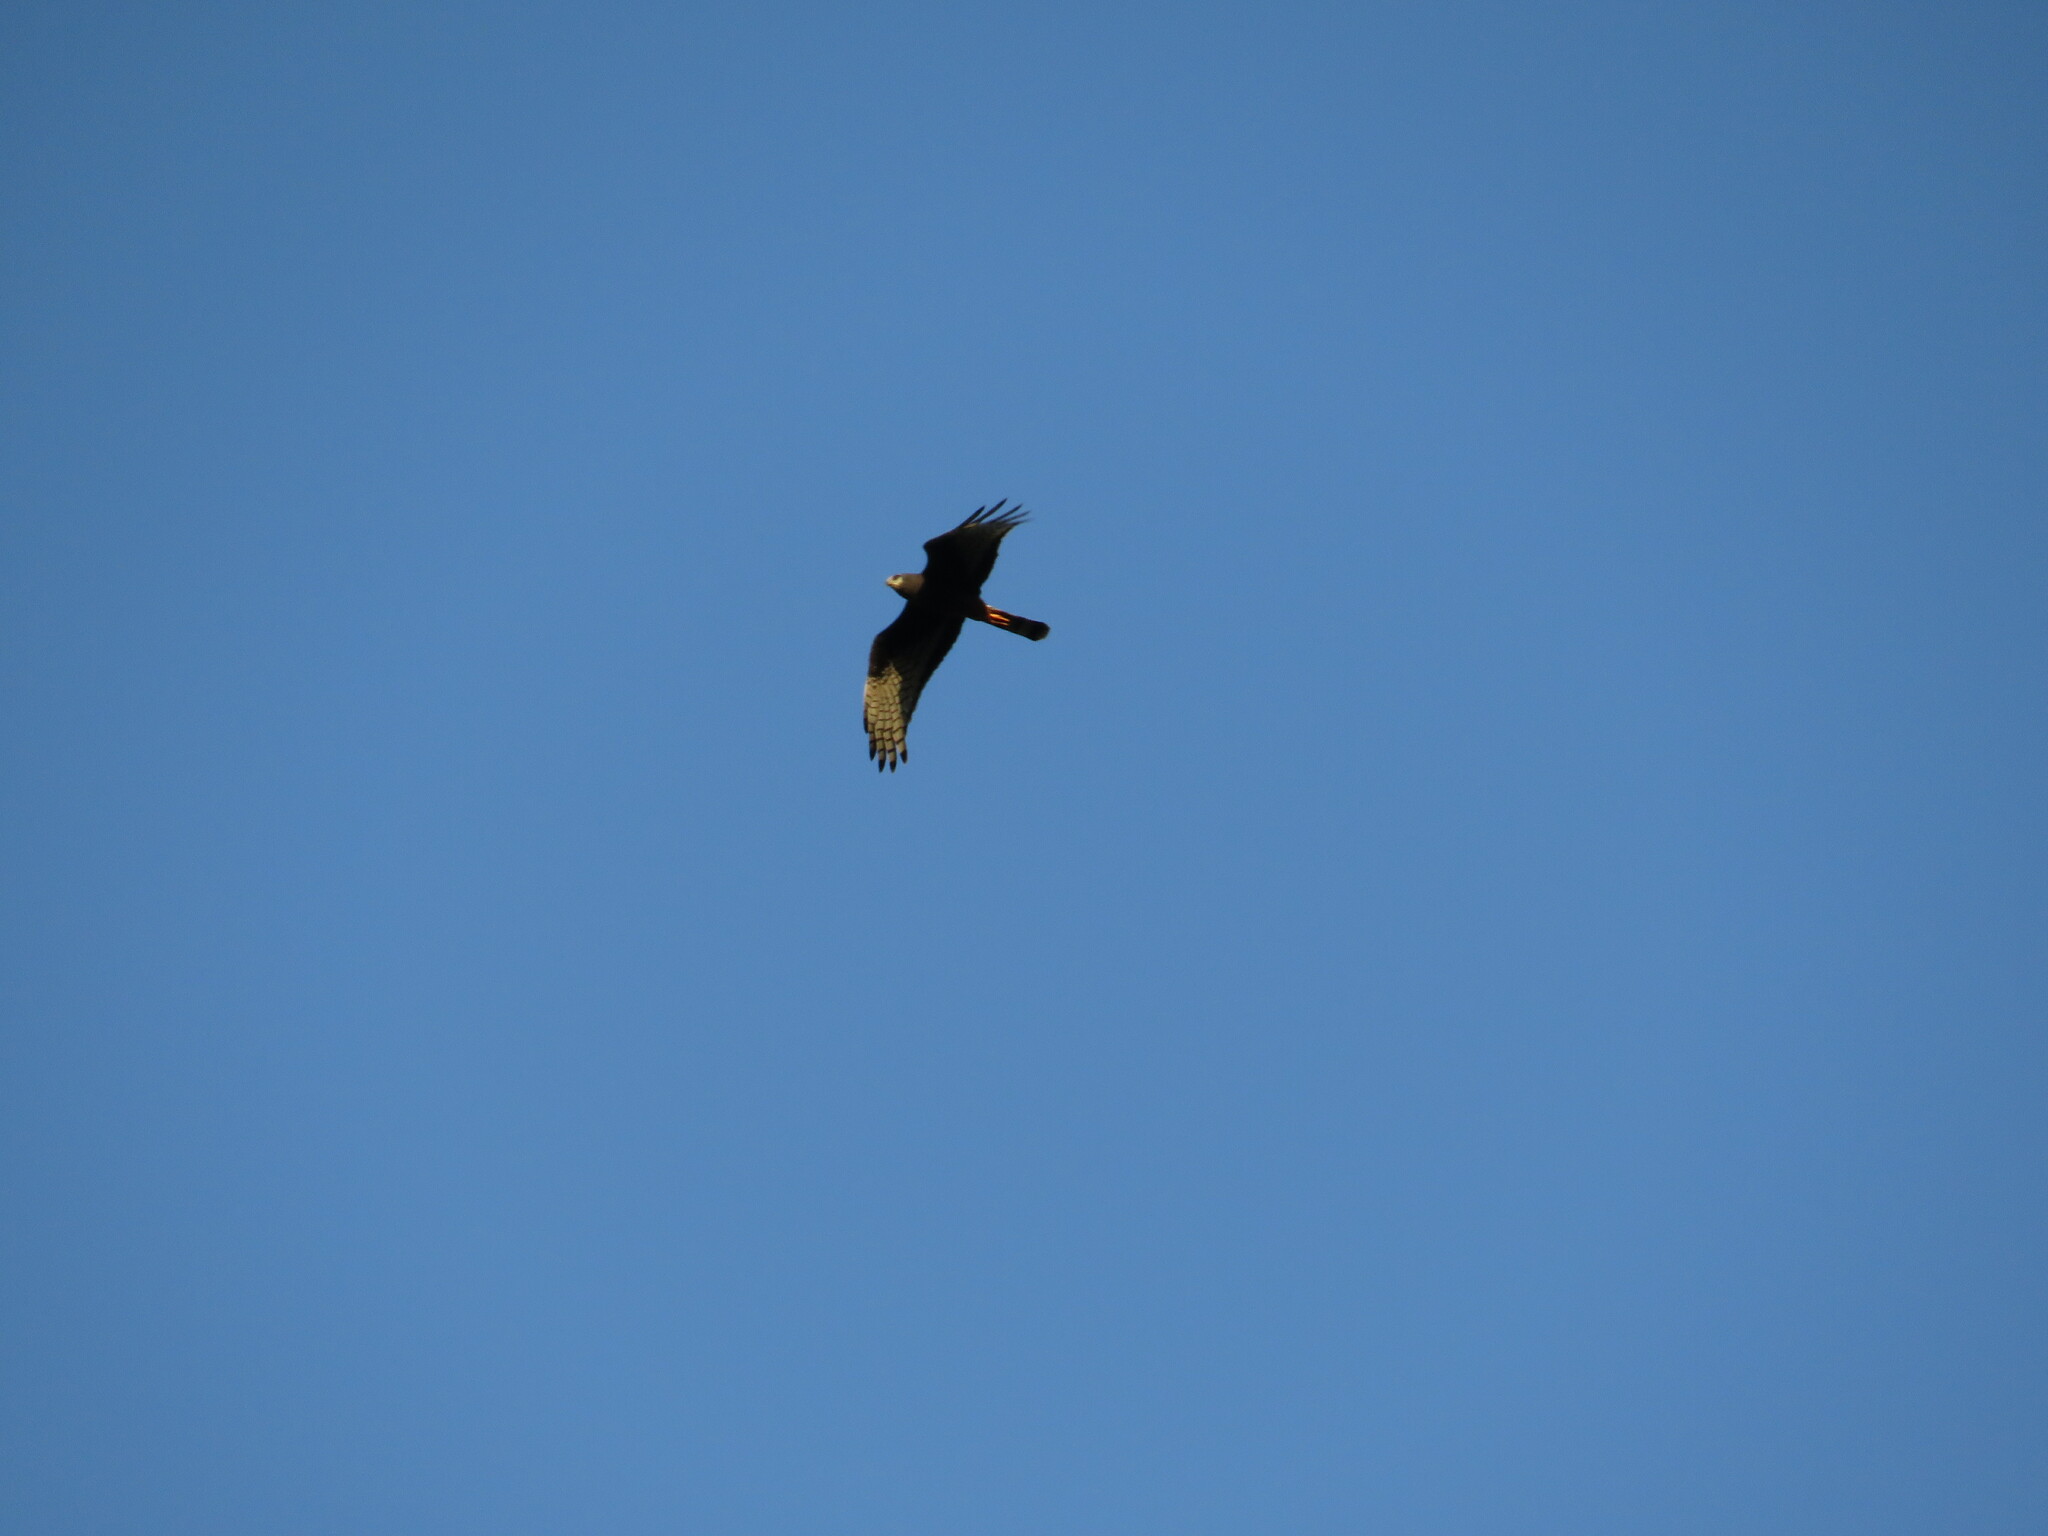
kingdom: Animalia
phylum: Chordata
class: Aves
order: Accipitriformes
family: Accipitridae
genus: Circus
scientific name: Circus buffoni
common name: Long-winged harrier
